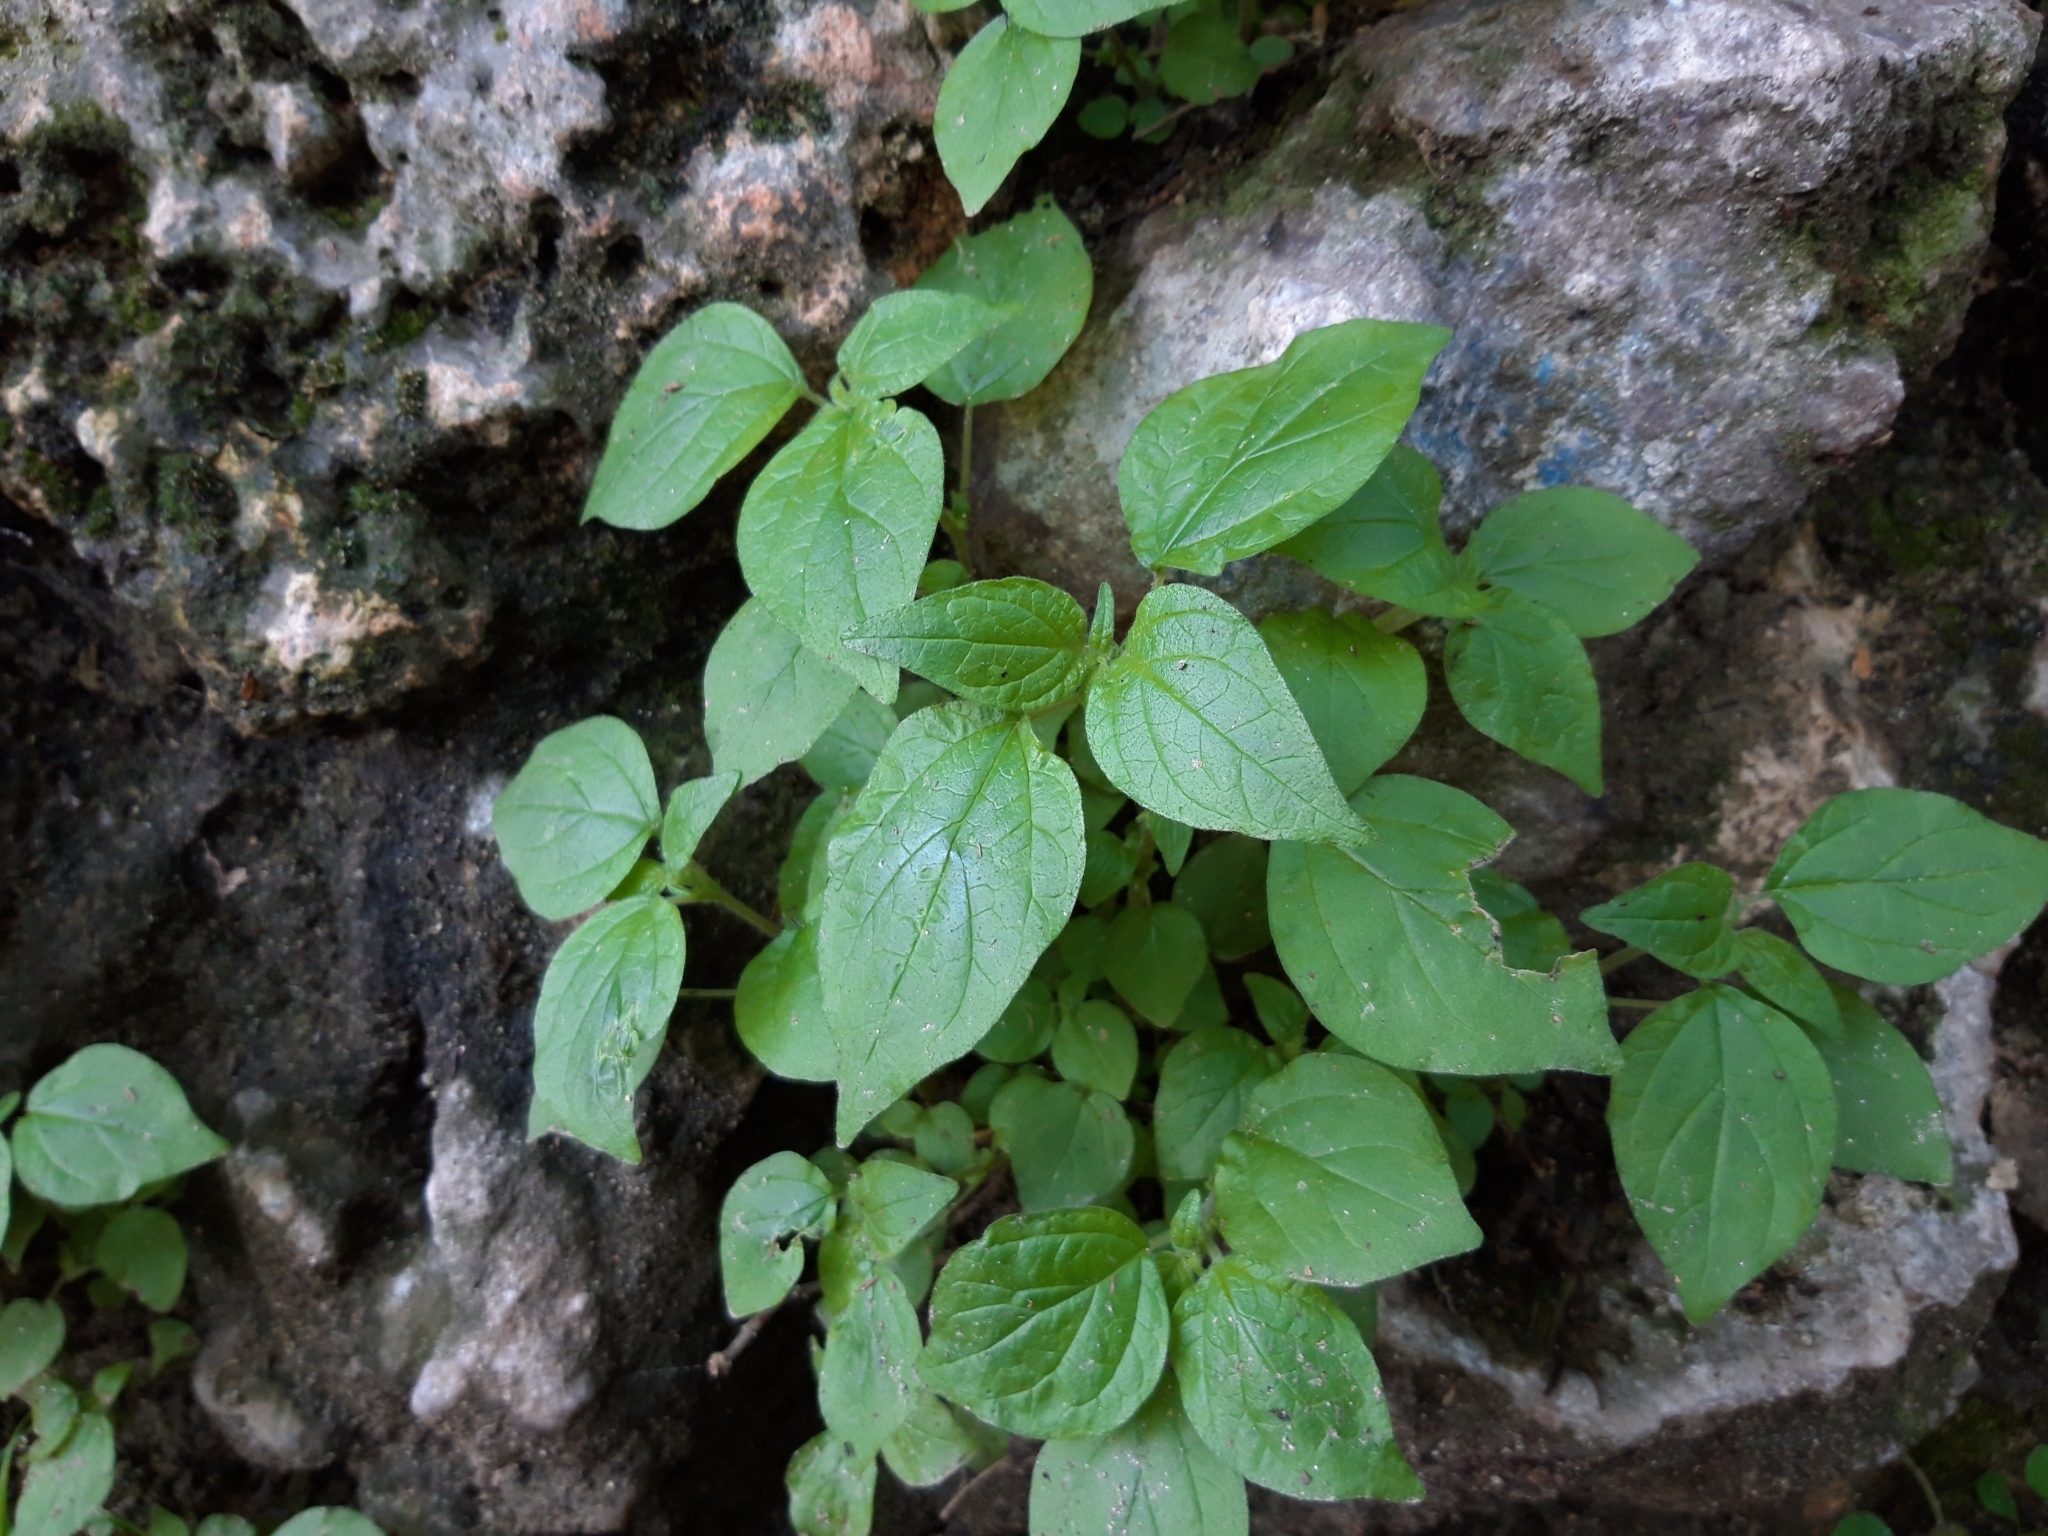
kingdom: Plantae
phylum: Tracheophyta
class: Magnoliopsida
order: Rosales
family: Urticaceae
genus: Parietaria
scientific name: Parietaria judaica
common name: Pellitory-of-the-wall
